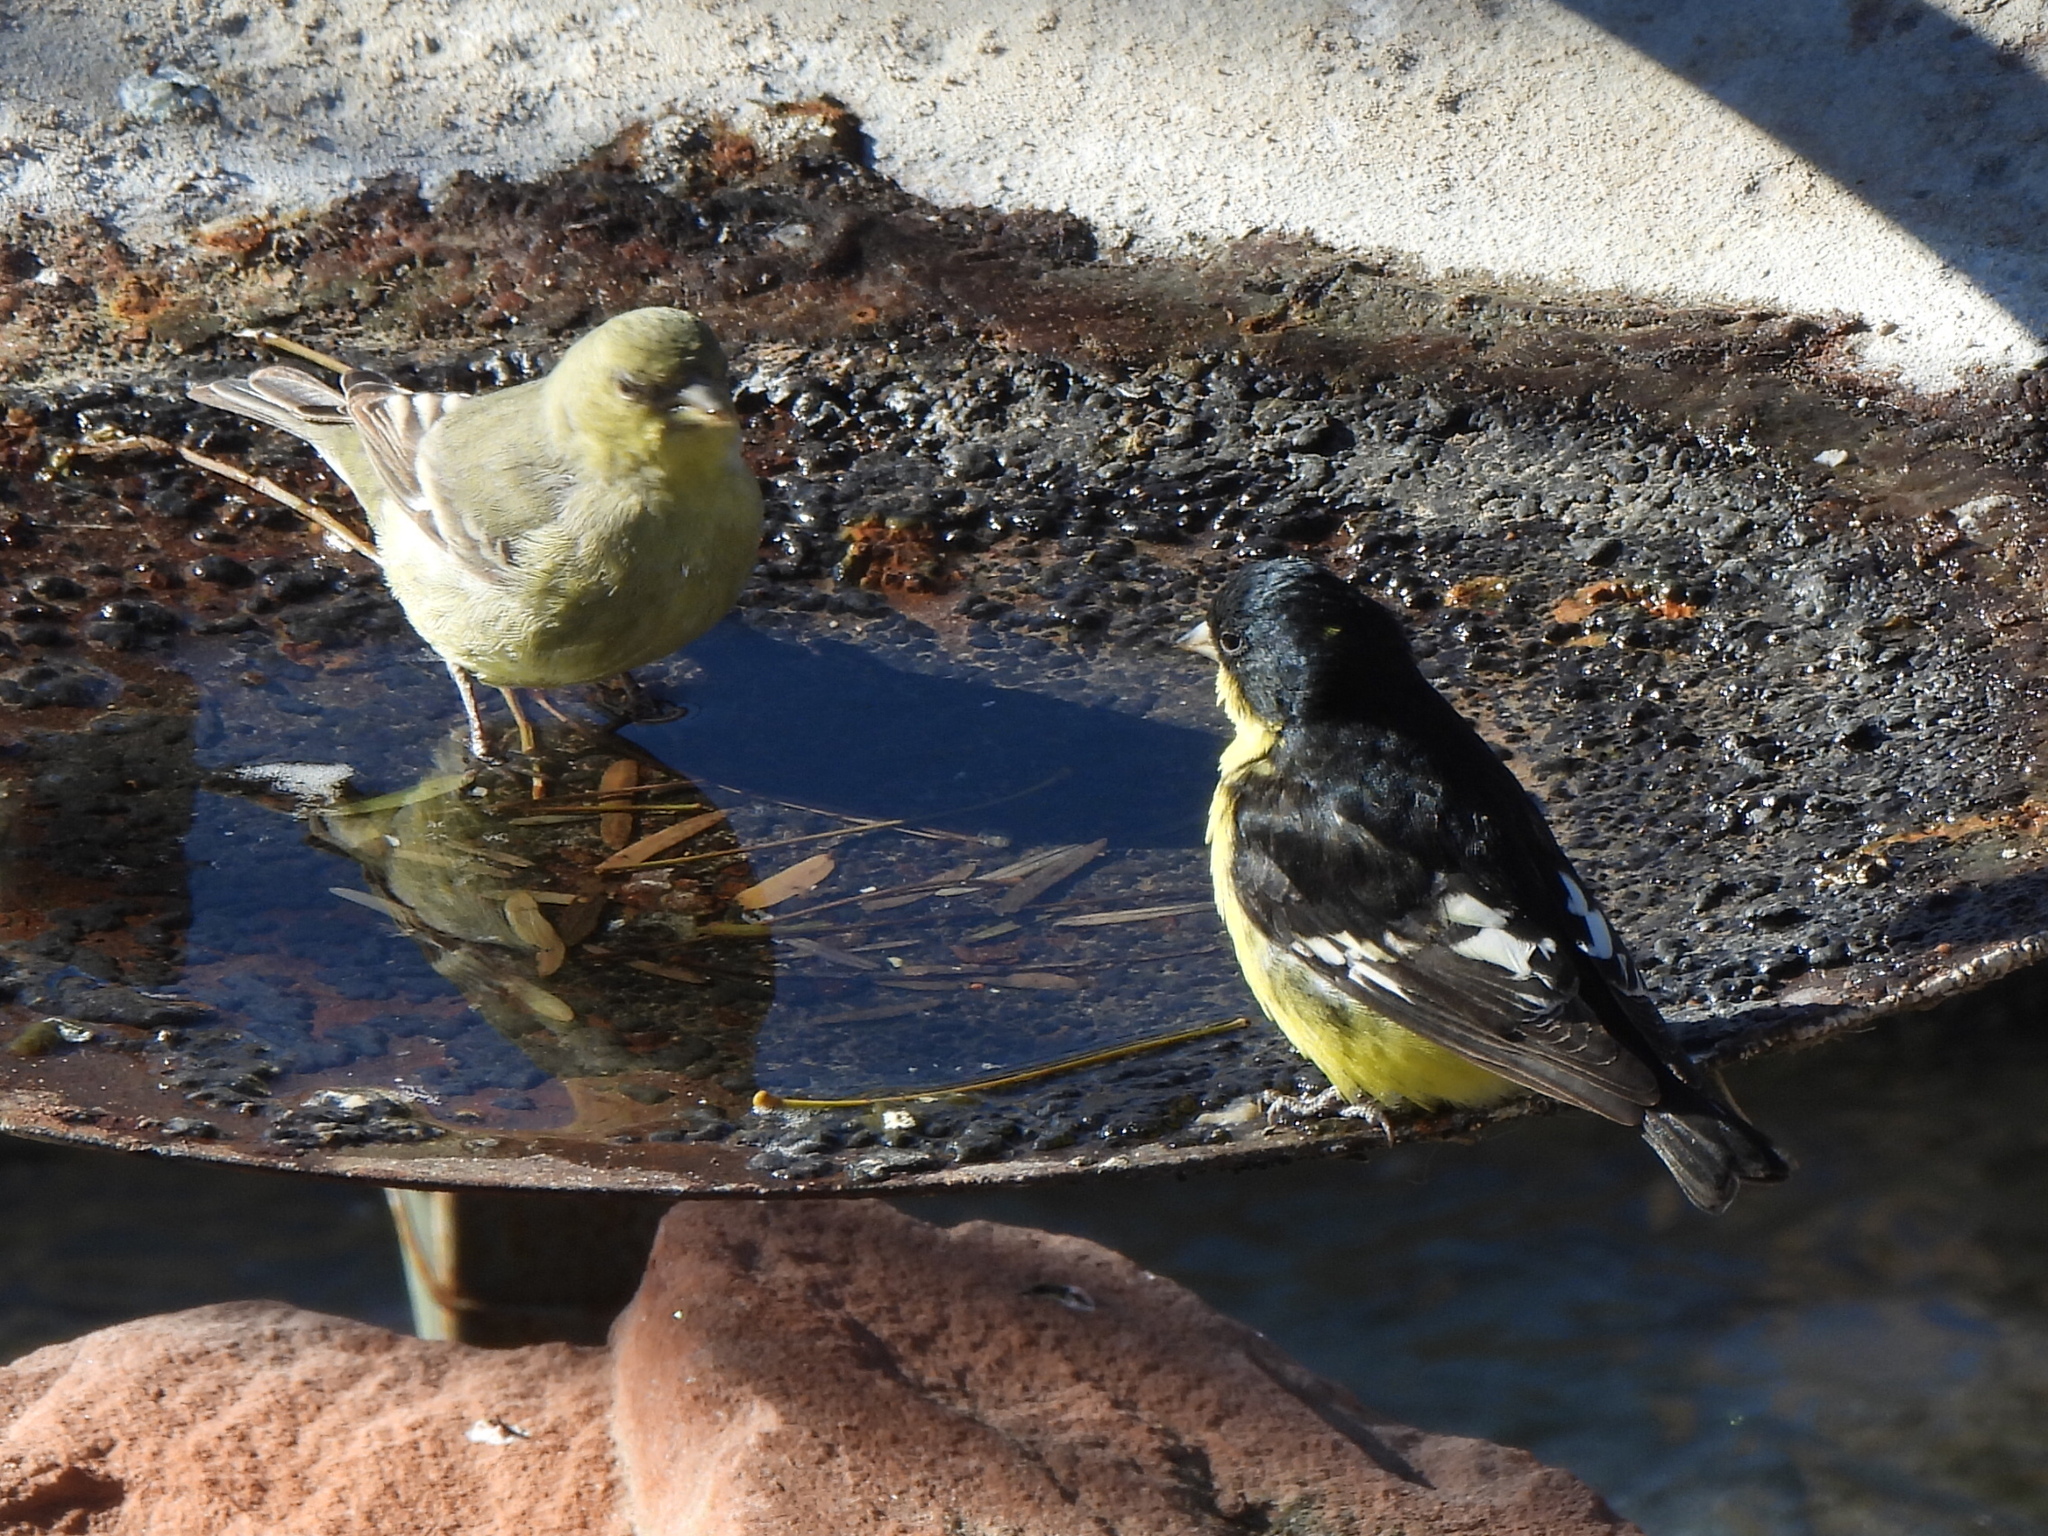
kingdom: Animalia
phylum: Chordata
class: Aves
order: Passeriformes
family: Fringillidae
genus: Spinus
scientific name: Spinus psaltria
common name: Lesser goldfinch
